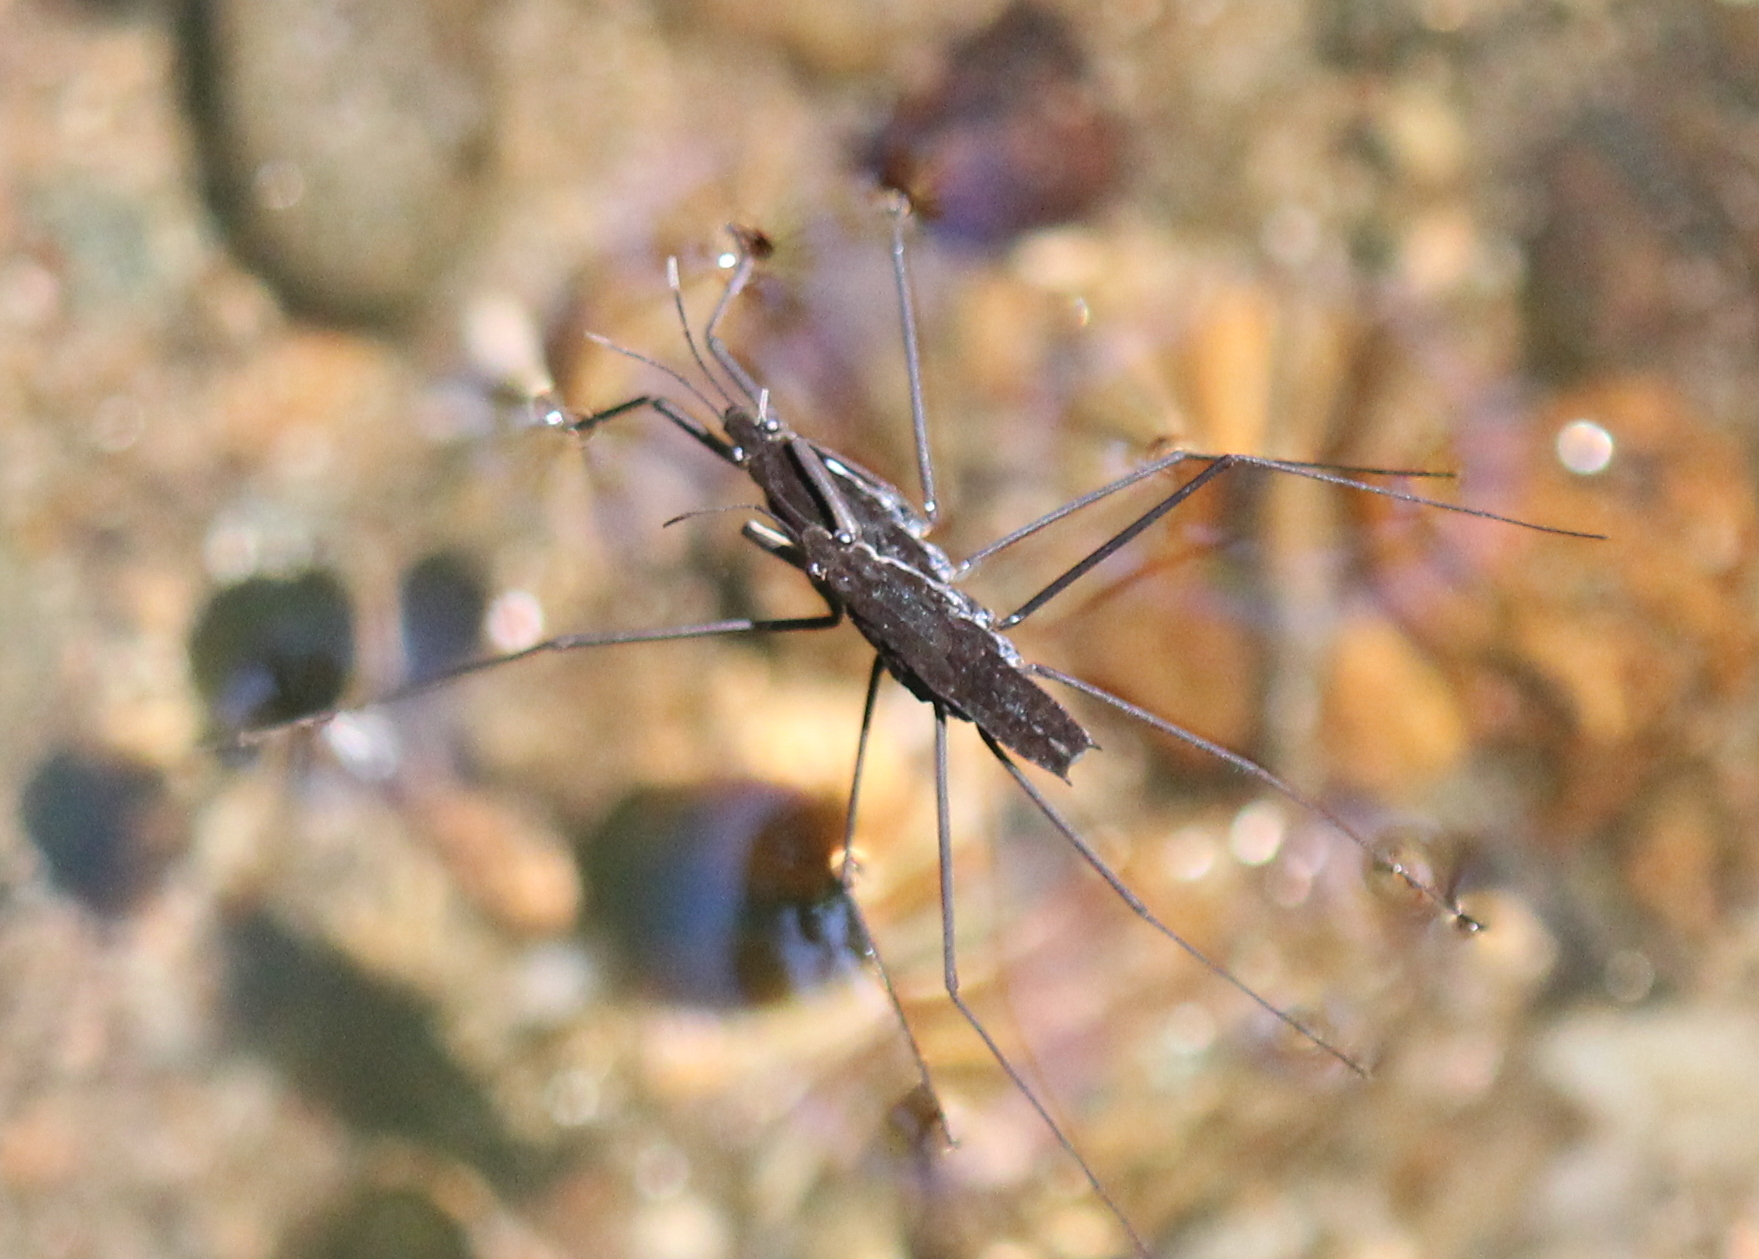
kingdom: Animalia
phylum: Arthropoda
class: Insecta
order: Hemiptera
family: Gerridae
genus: Aquarius
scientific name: Aquarius remigis
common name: Common water strider
